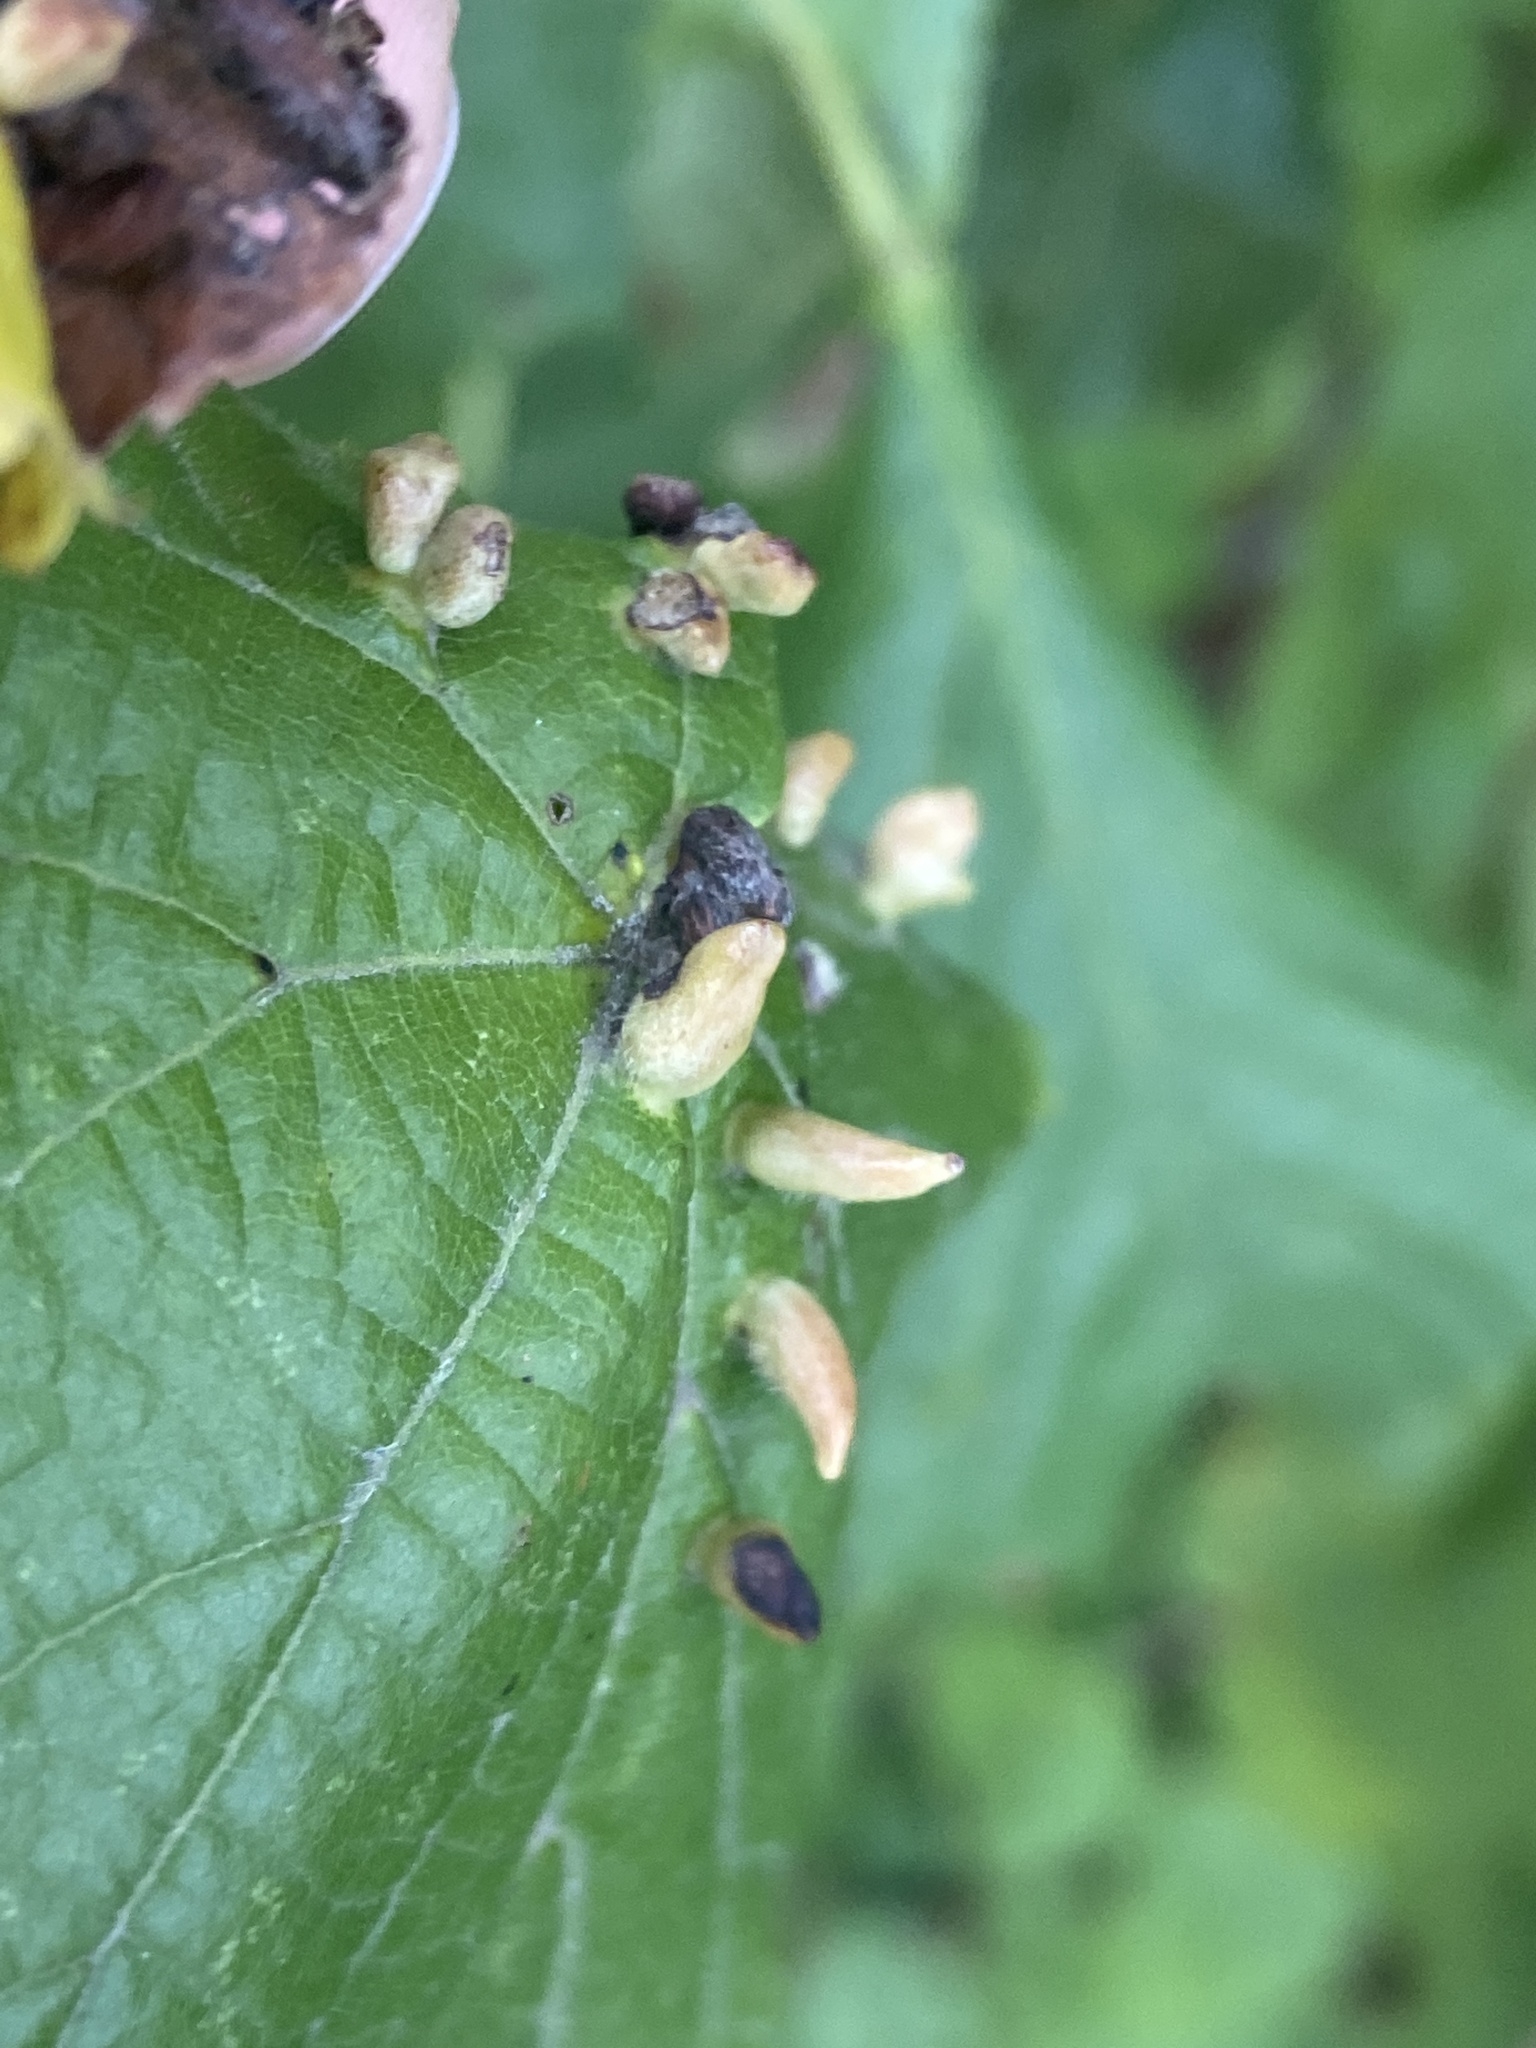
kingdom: Animalia
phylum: Arthropoda
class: Arachnida
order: Trombidiformes
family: Eriophyidae
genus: Eriophyes
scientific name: Eriophyes tiliae
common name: Red nail gall mite
